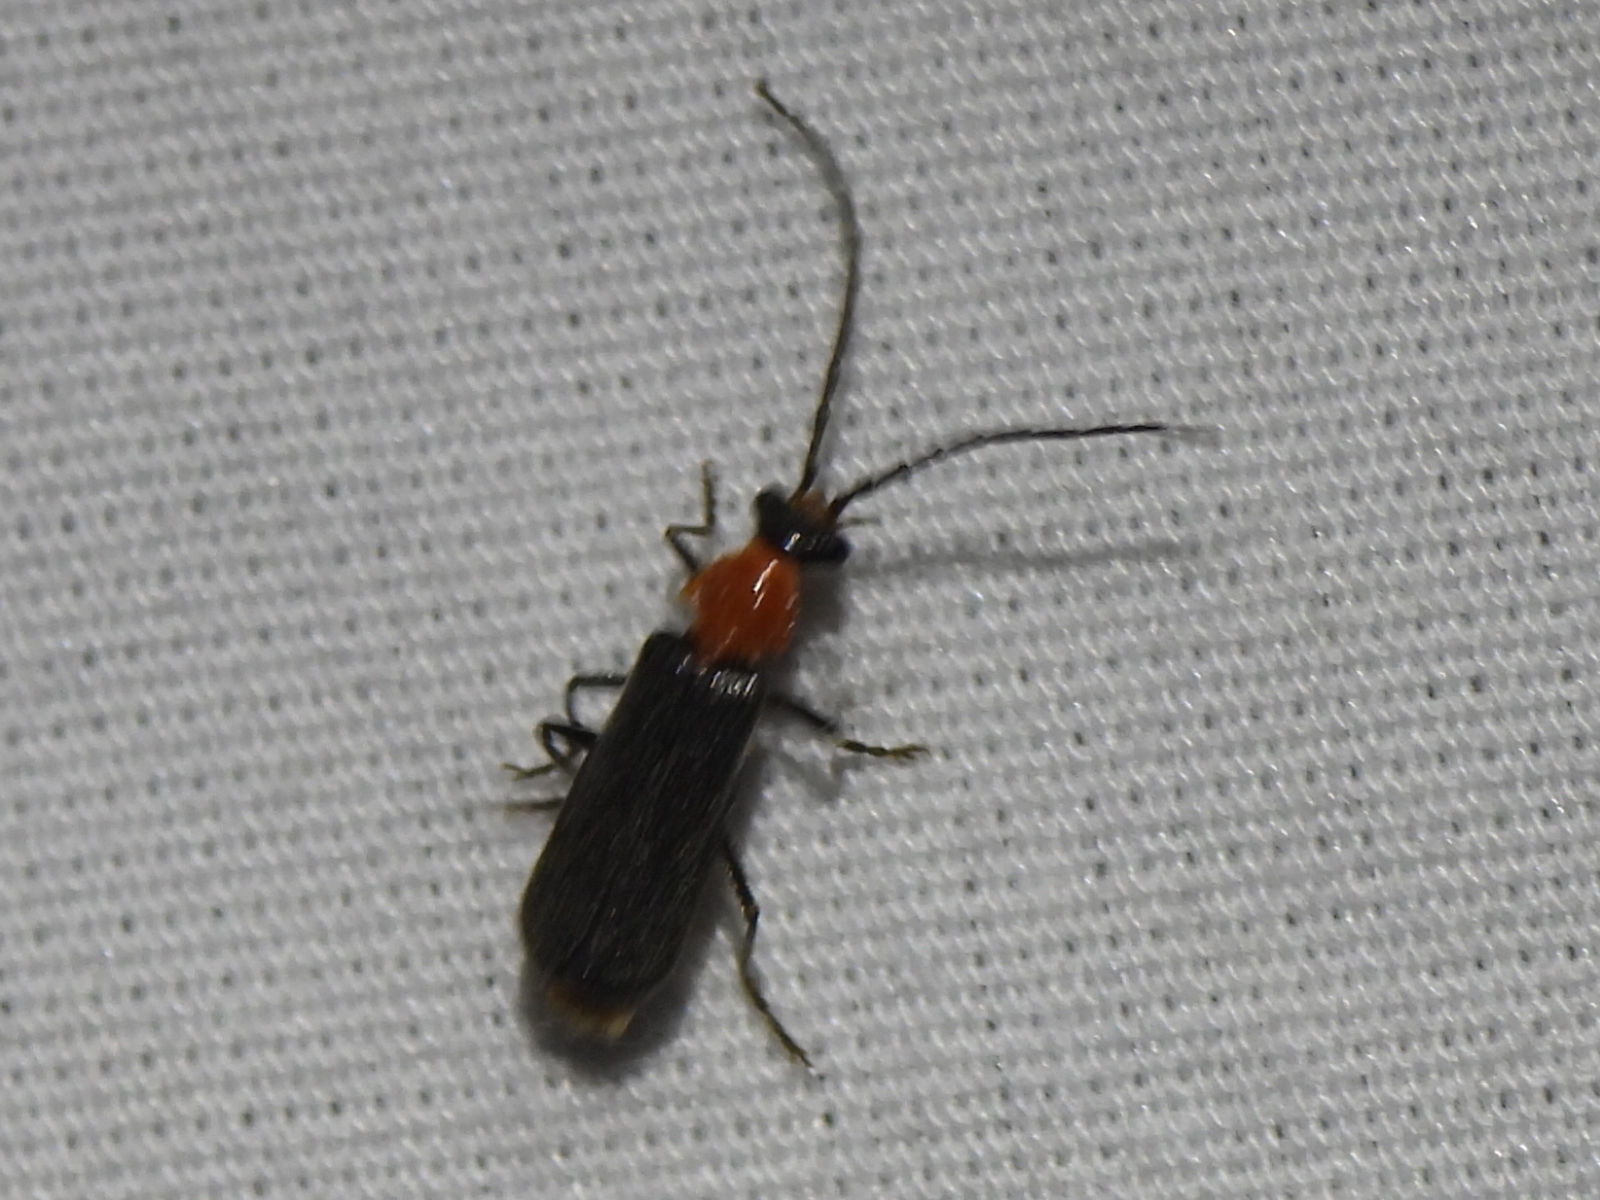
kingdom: Animalia
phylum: Arthropoda
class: Insecta
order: Coleoptera
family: Cantharidae
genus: Ditemnus
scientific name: Ditemnus
